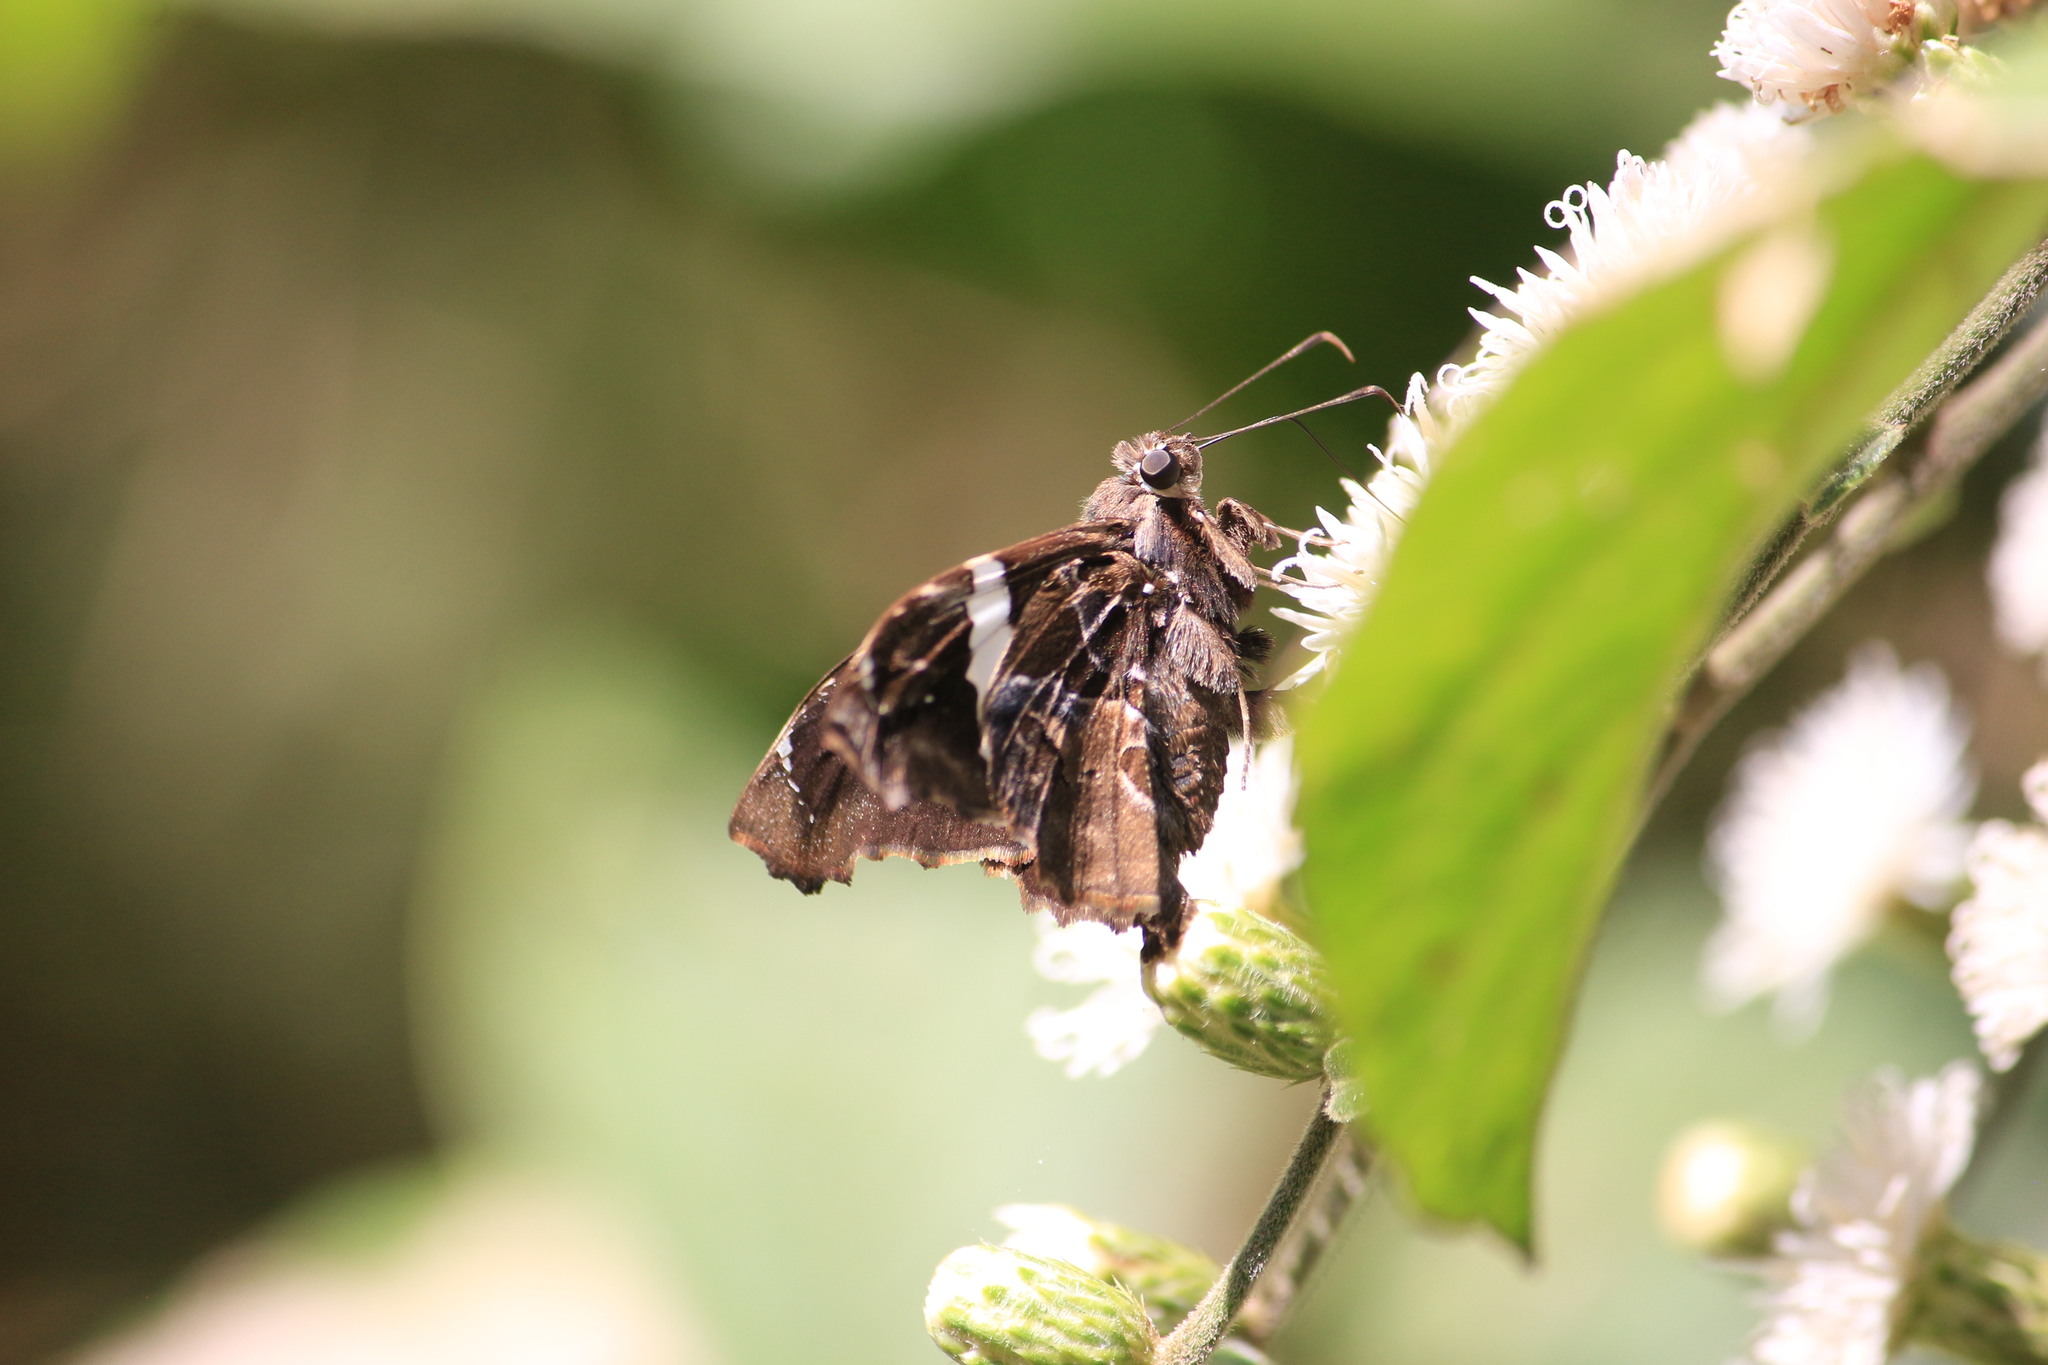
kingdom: Animalia
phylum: Arthropoda
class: Insecta
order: Lepidoptera
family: Hesperiidae
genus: Spathilepia
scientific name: Spathilepia clonius
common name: Falcate skipper
